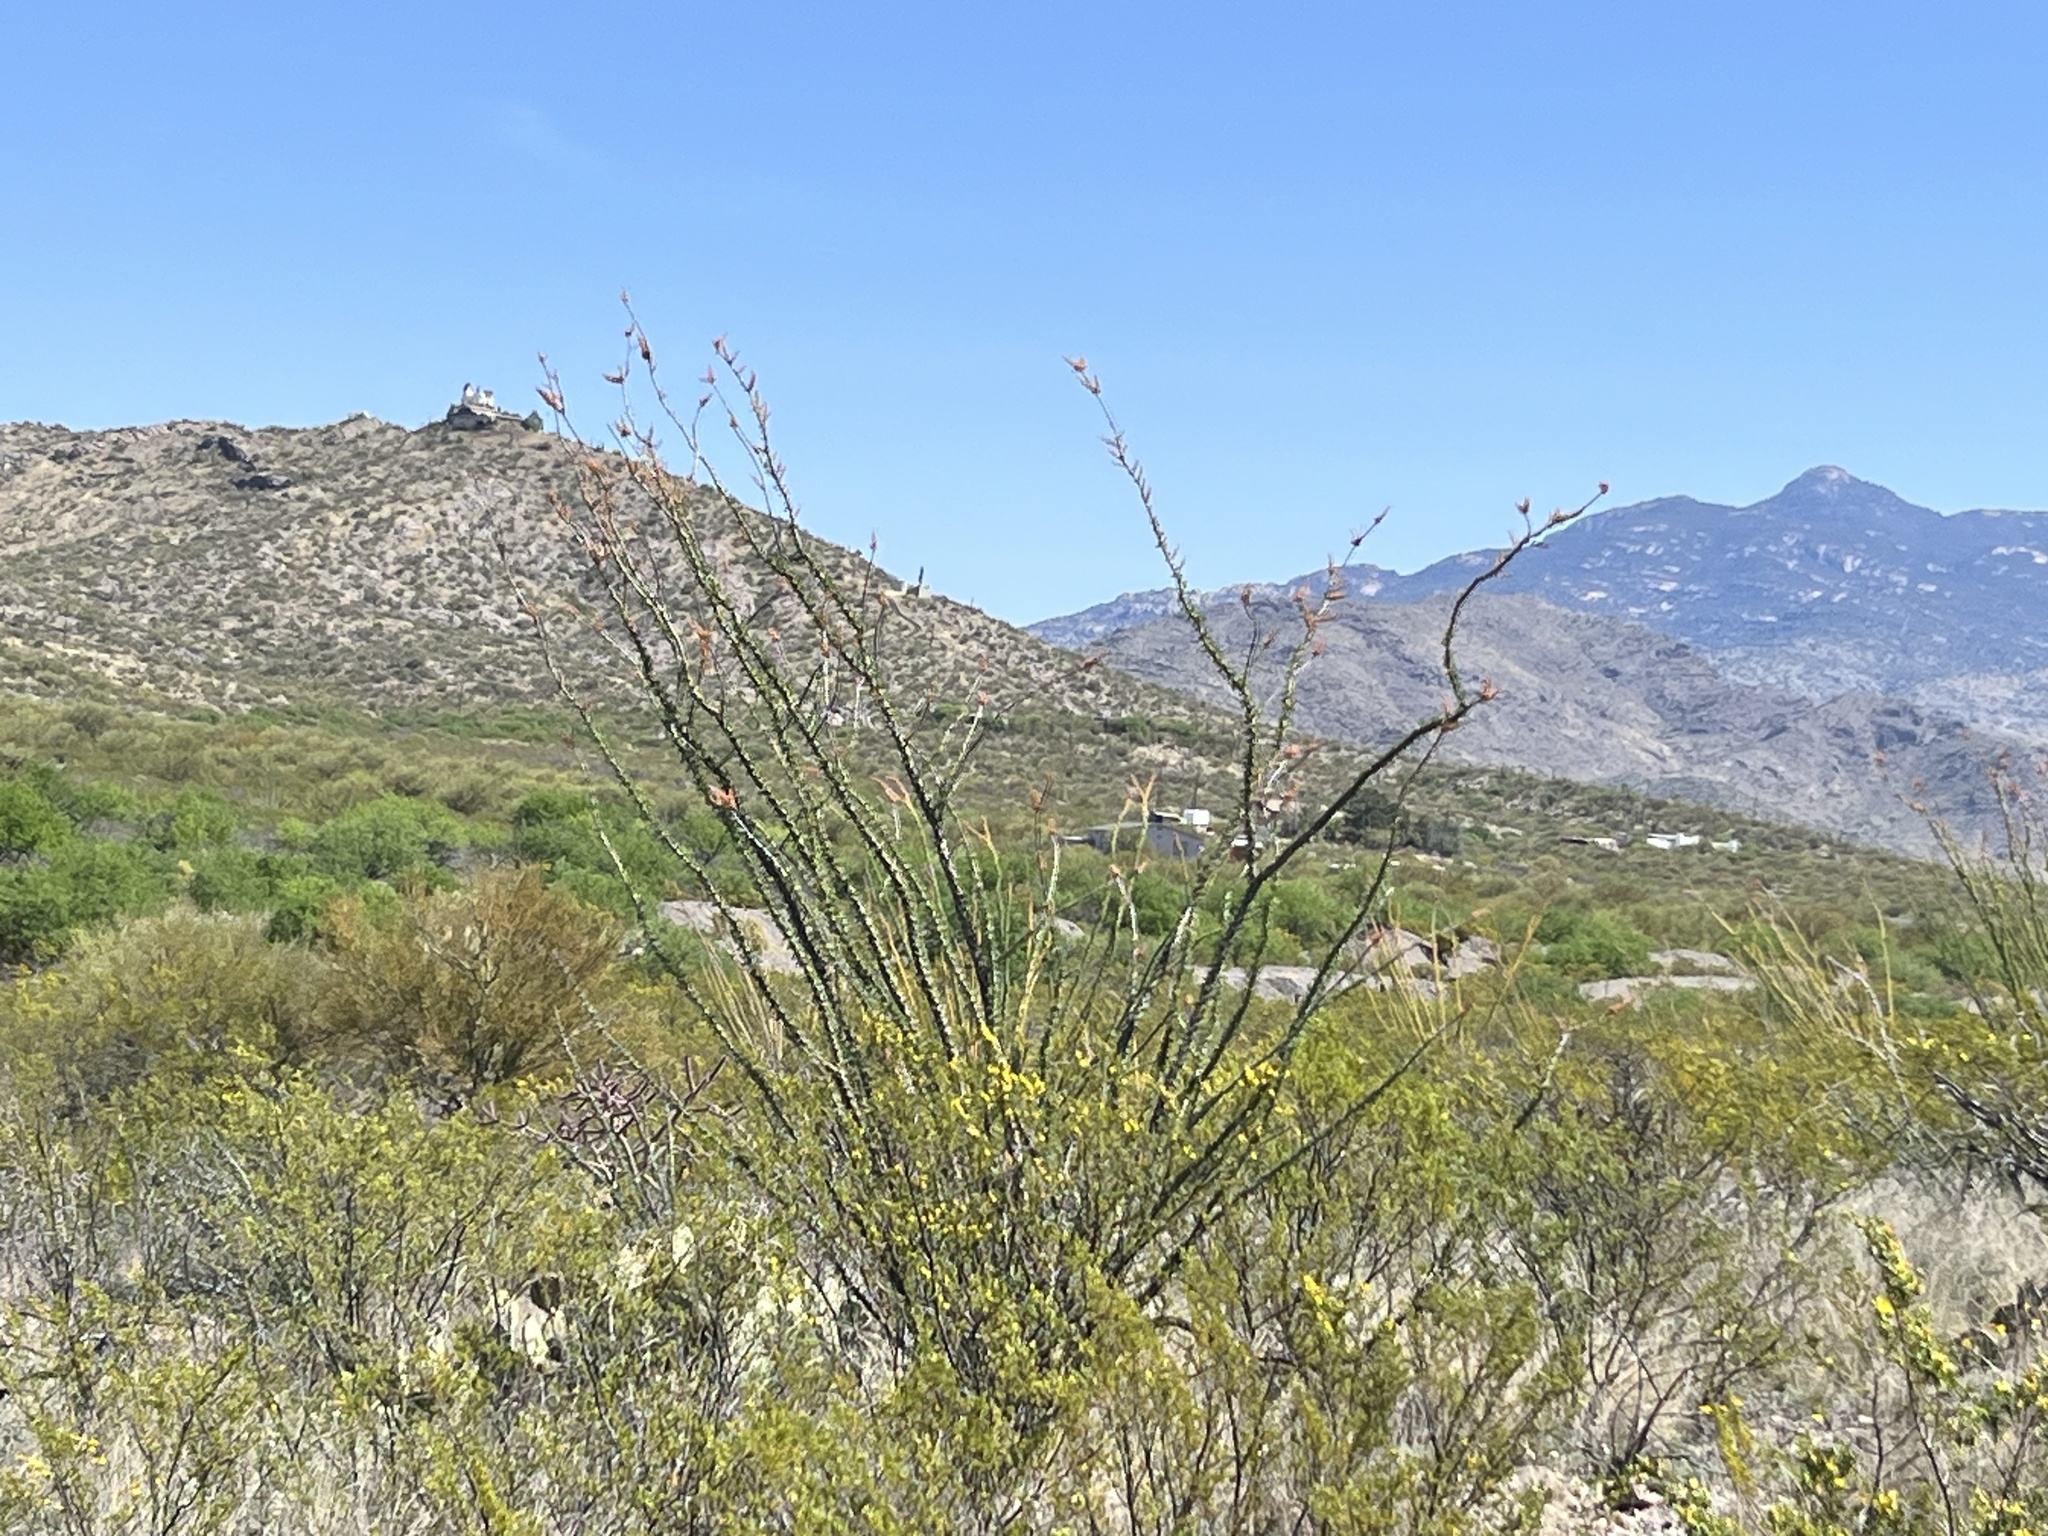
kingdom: Plantae
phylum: Tracheophyta
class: Magnoliopsida
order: Ericales
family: Fouquieriaceae
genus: Fouquieria
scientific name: Fouquieria splendens
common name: Vine-cactus
